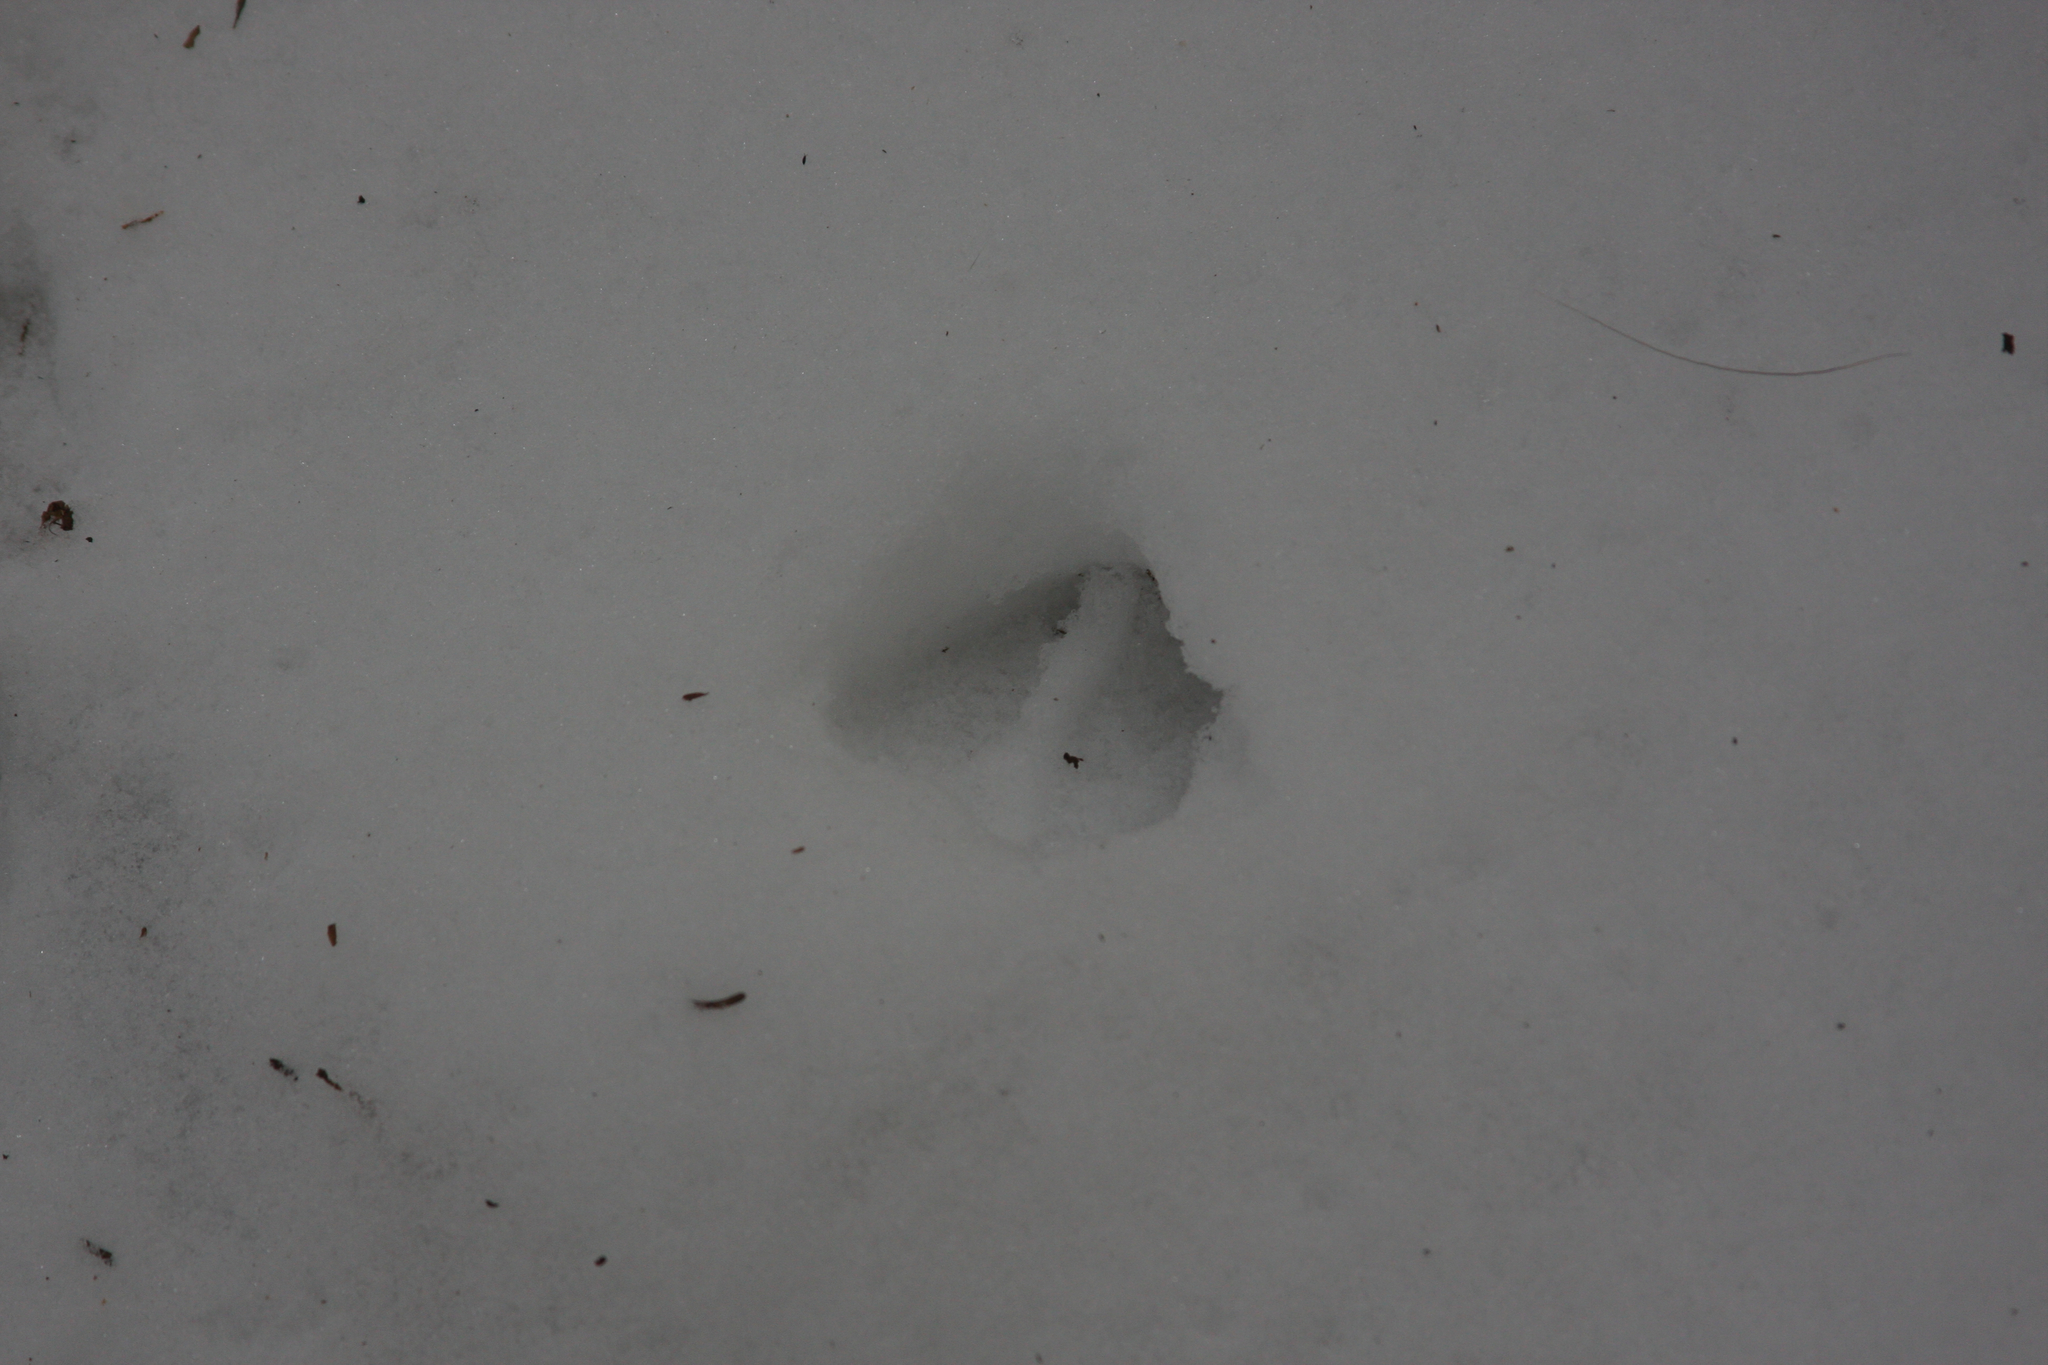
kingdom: Animalia
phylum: Chordata
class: Mammalia
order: Artiodactyla
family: Cervidae
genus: Odocoileus
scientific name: Odocoileus virginianus
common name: White-tailed deer
